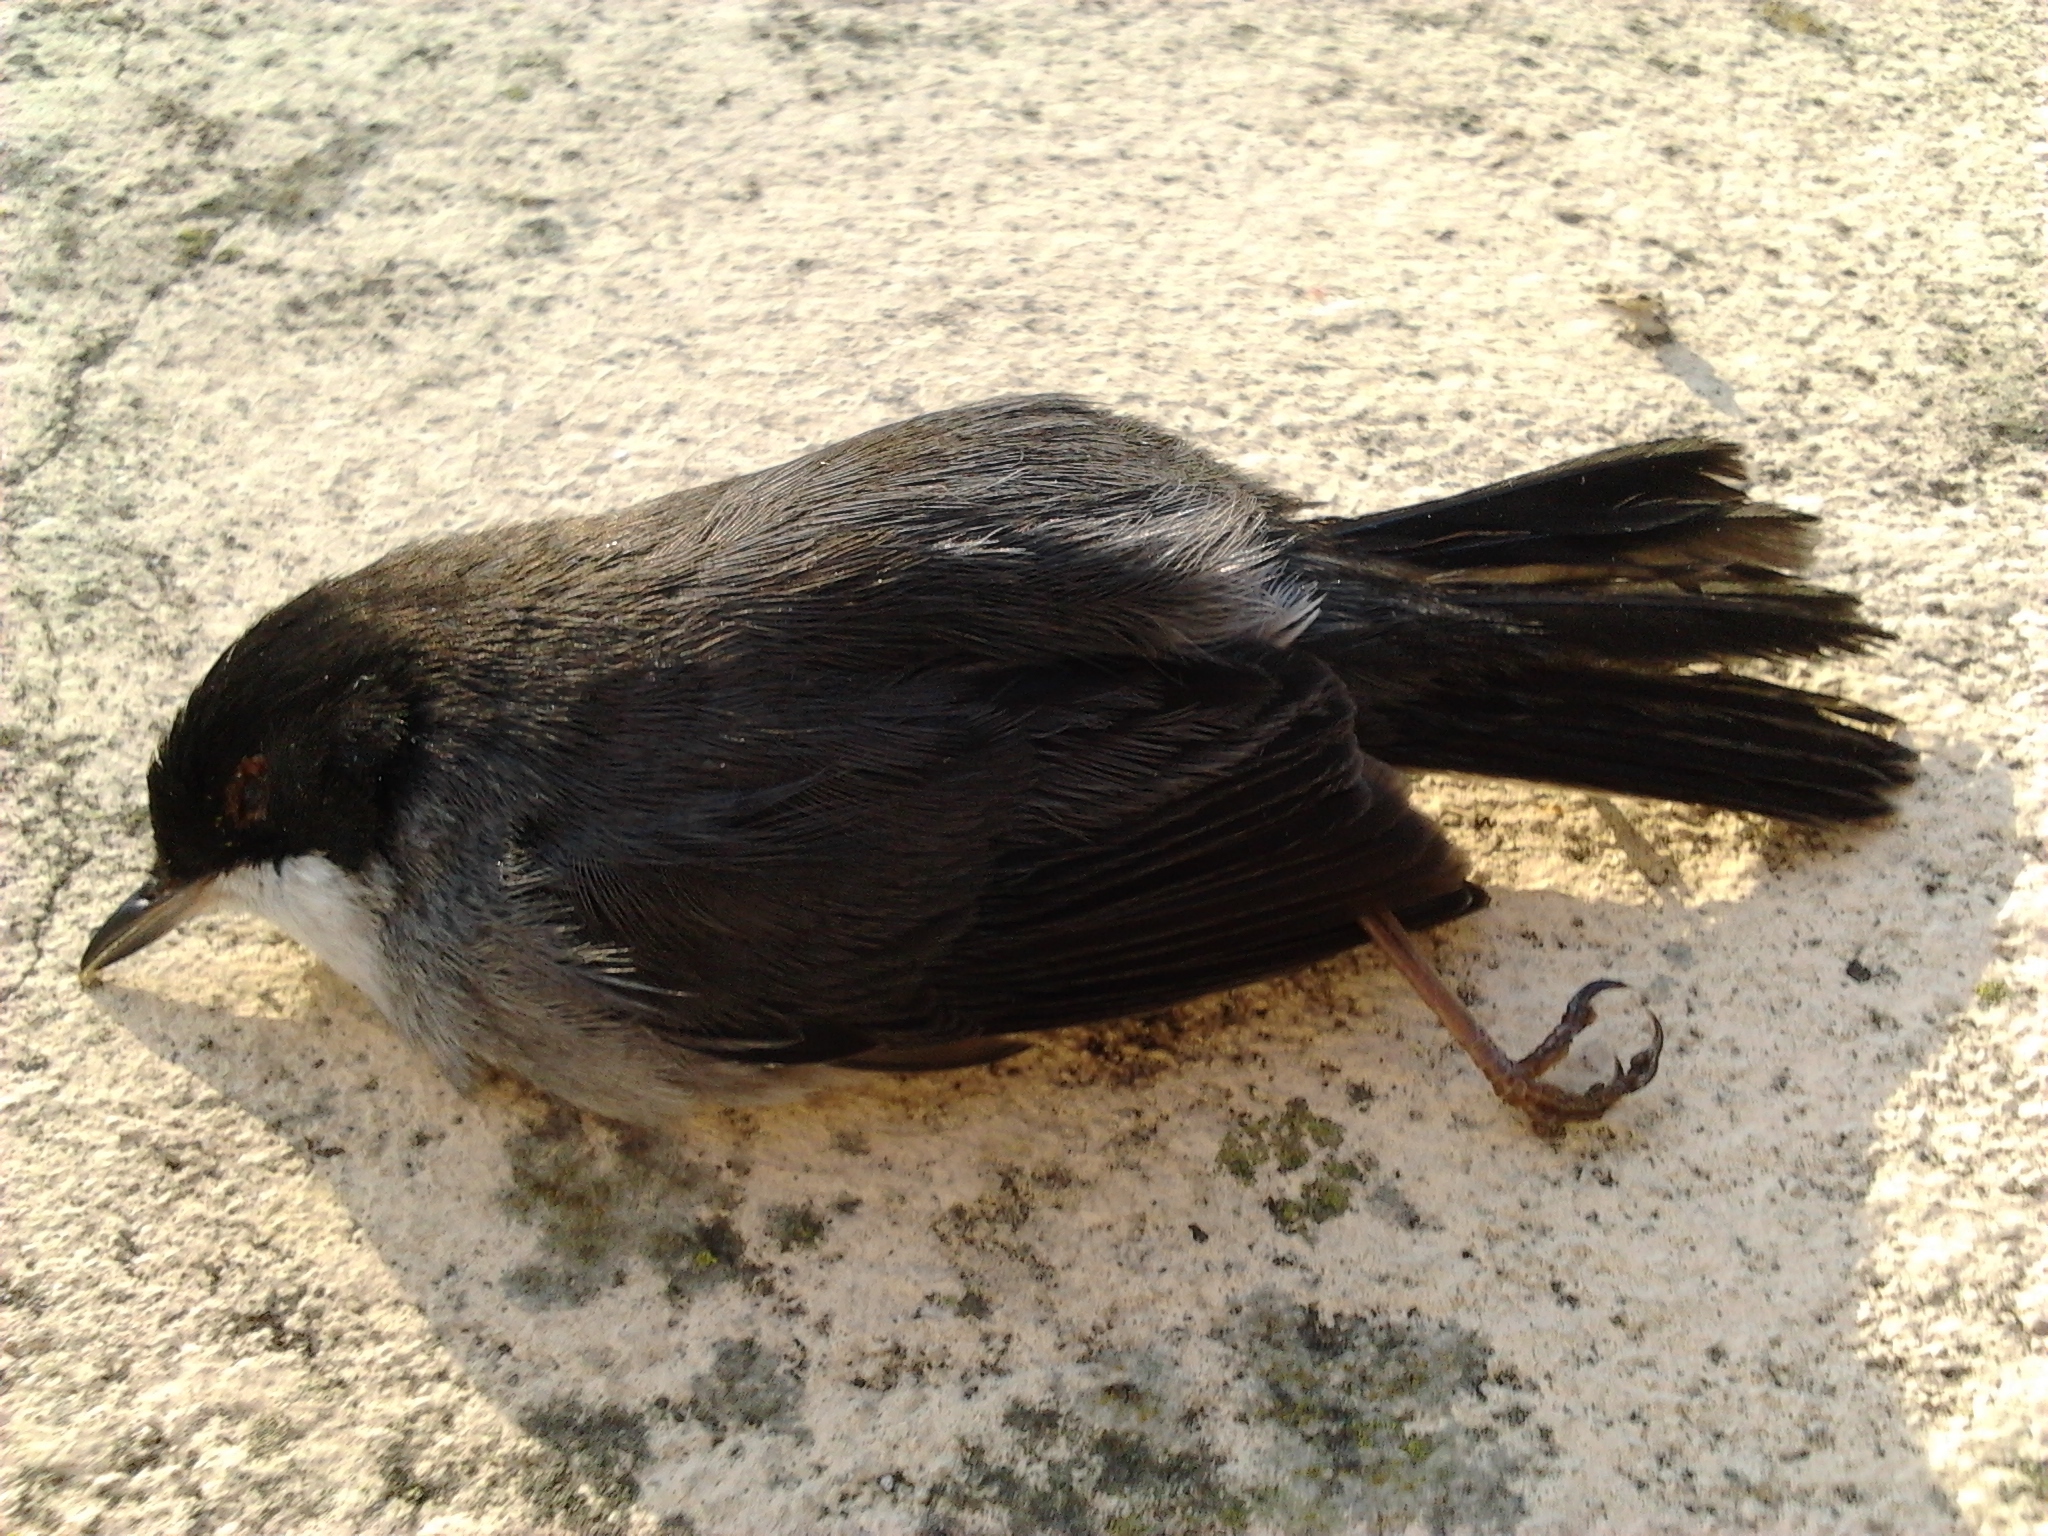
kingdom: Animalia
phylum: Chordata
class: Aves
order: Passeriformes
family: Sylviidae
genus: Curruca
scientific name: Curruca melanocephala
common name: Sardinian warbler
